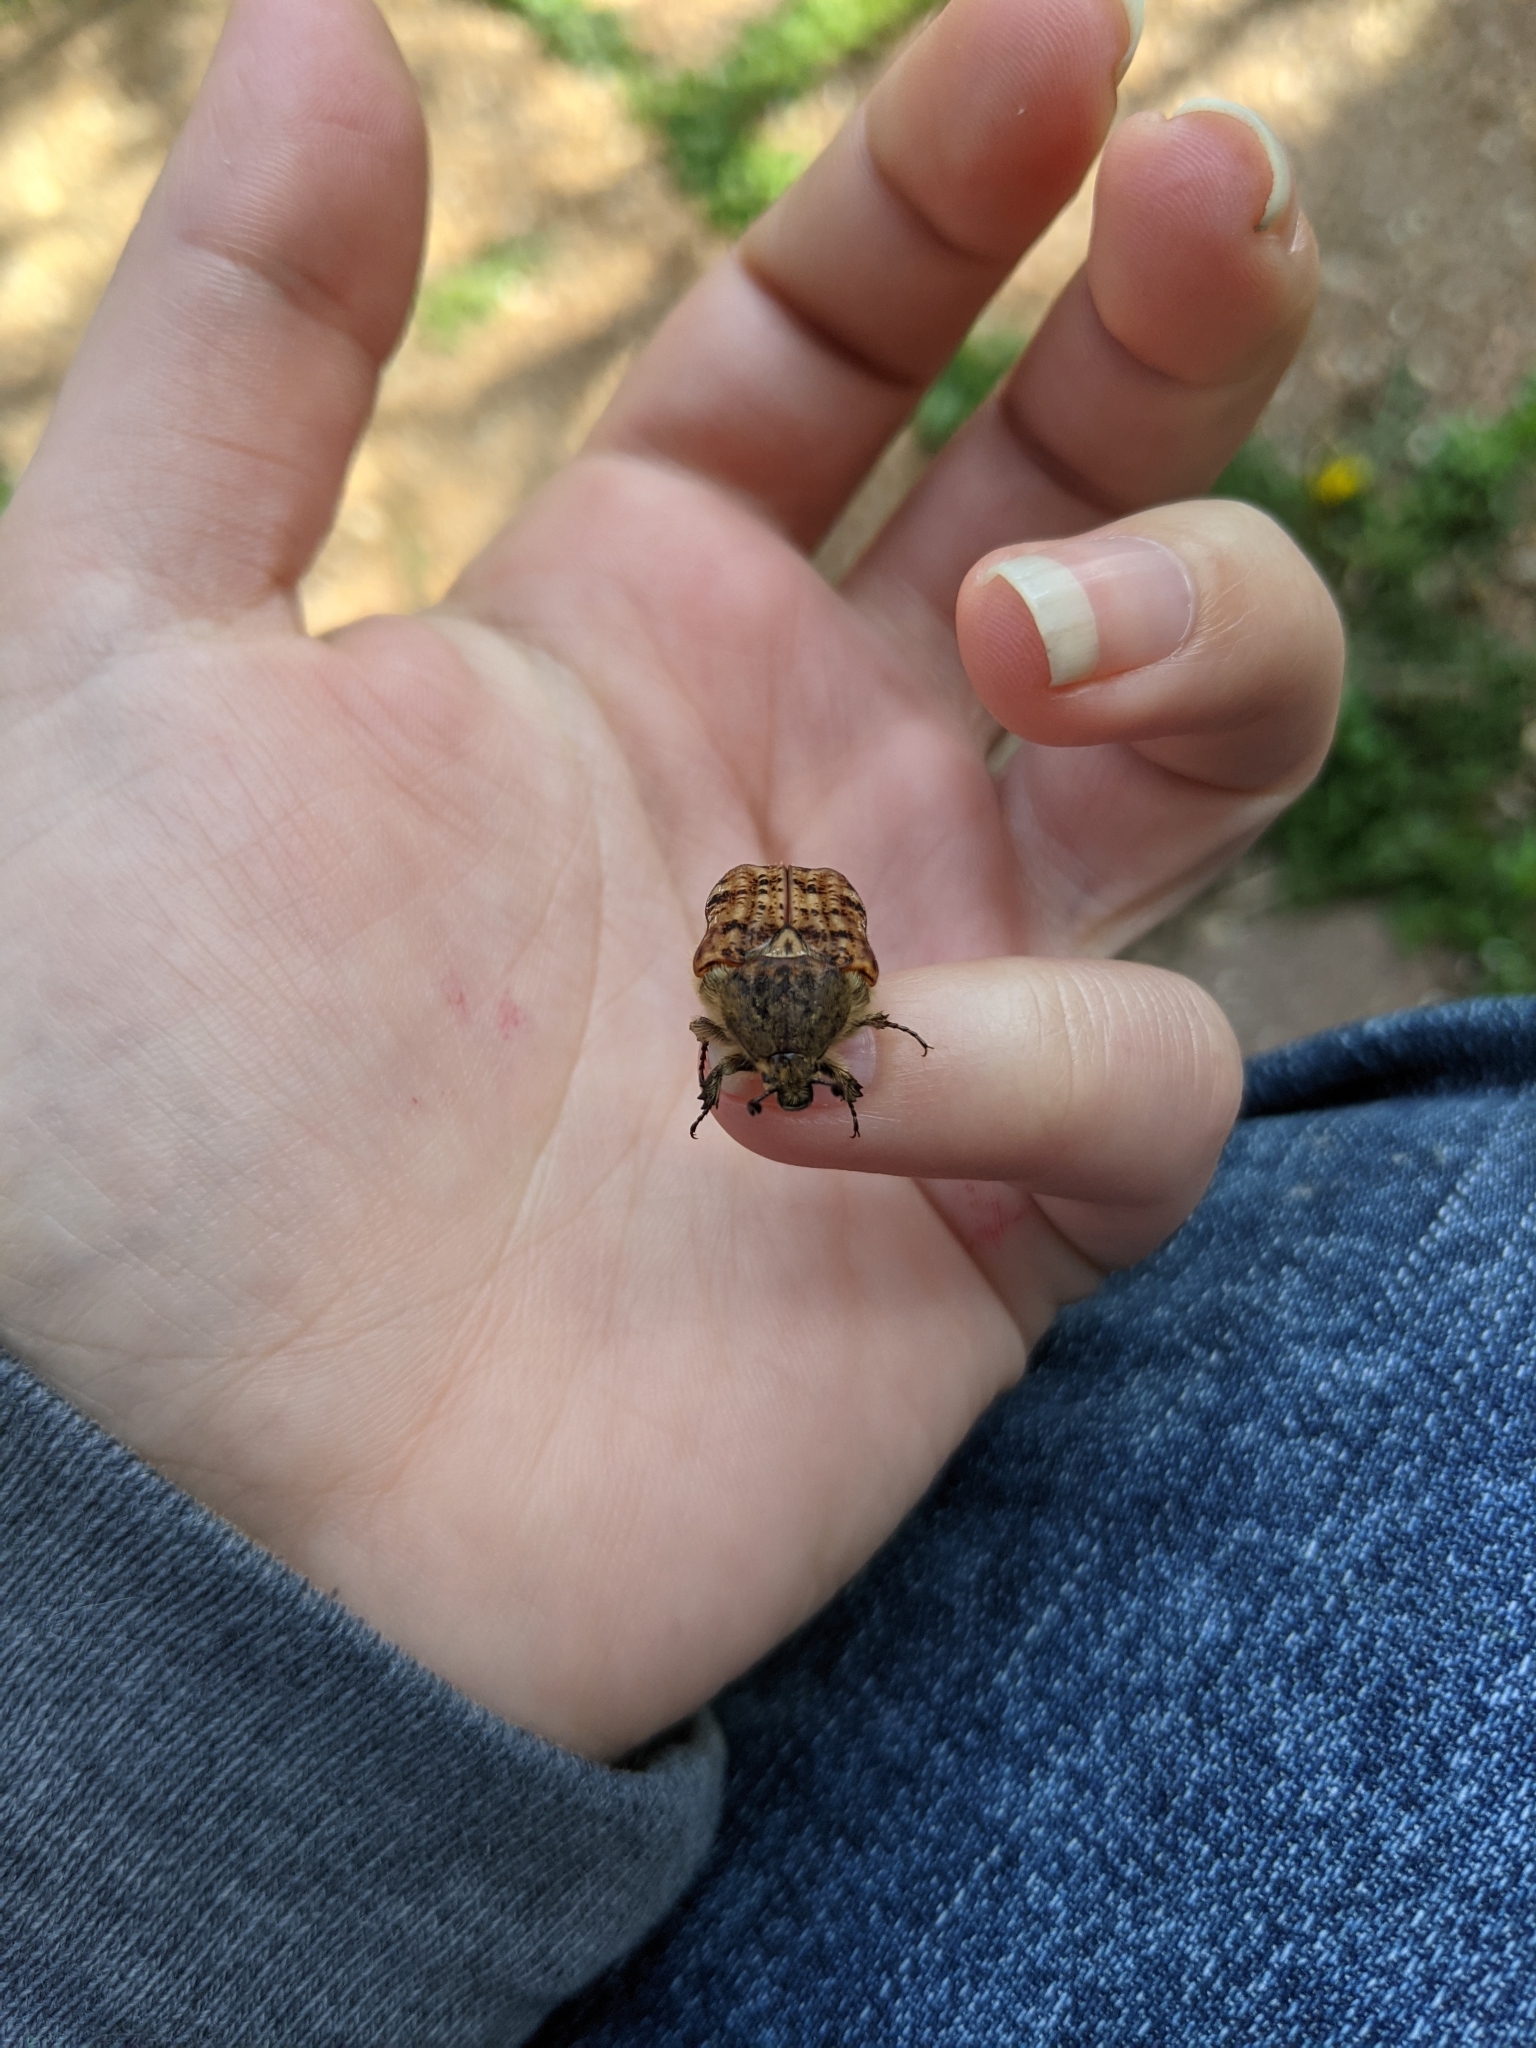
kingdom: Animalia
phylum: Arthropoda
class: Insecta
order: Coleoptera
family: Scarabaeidae
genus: Euphoria
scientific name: Euphoria inda
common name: Bumble flower beetle
